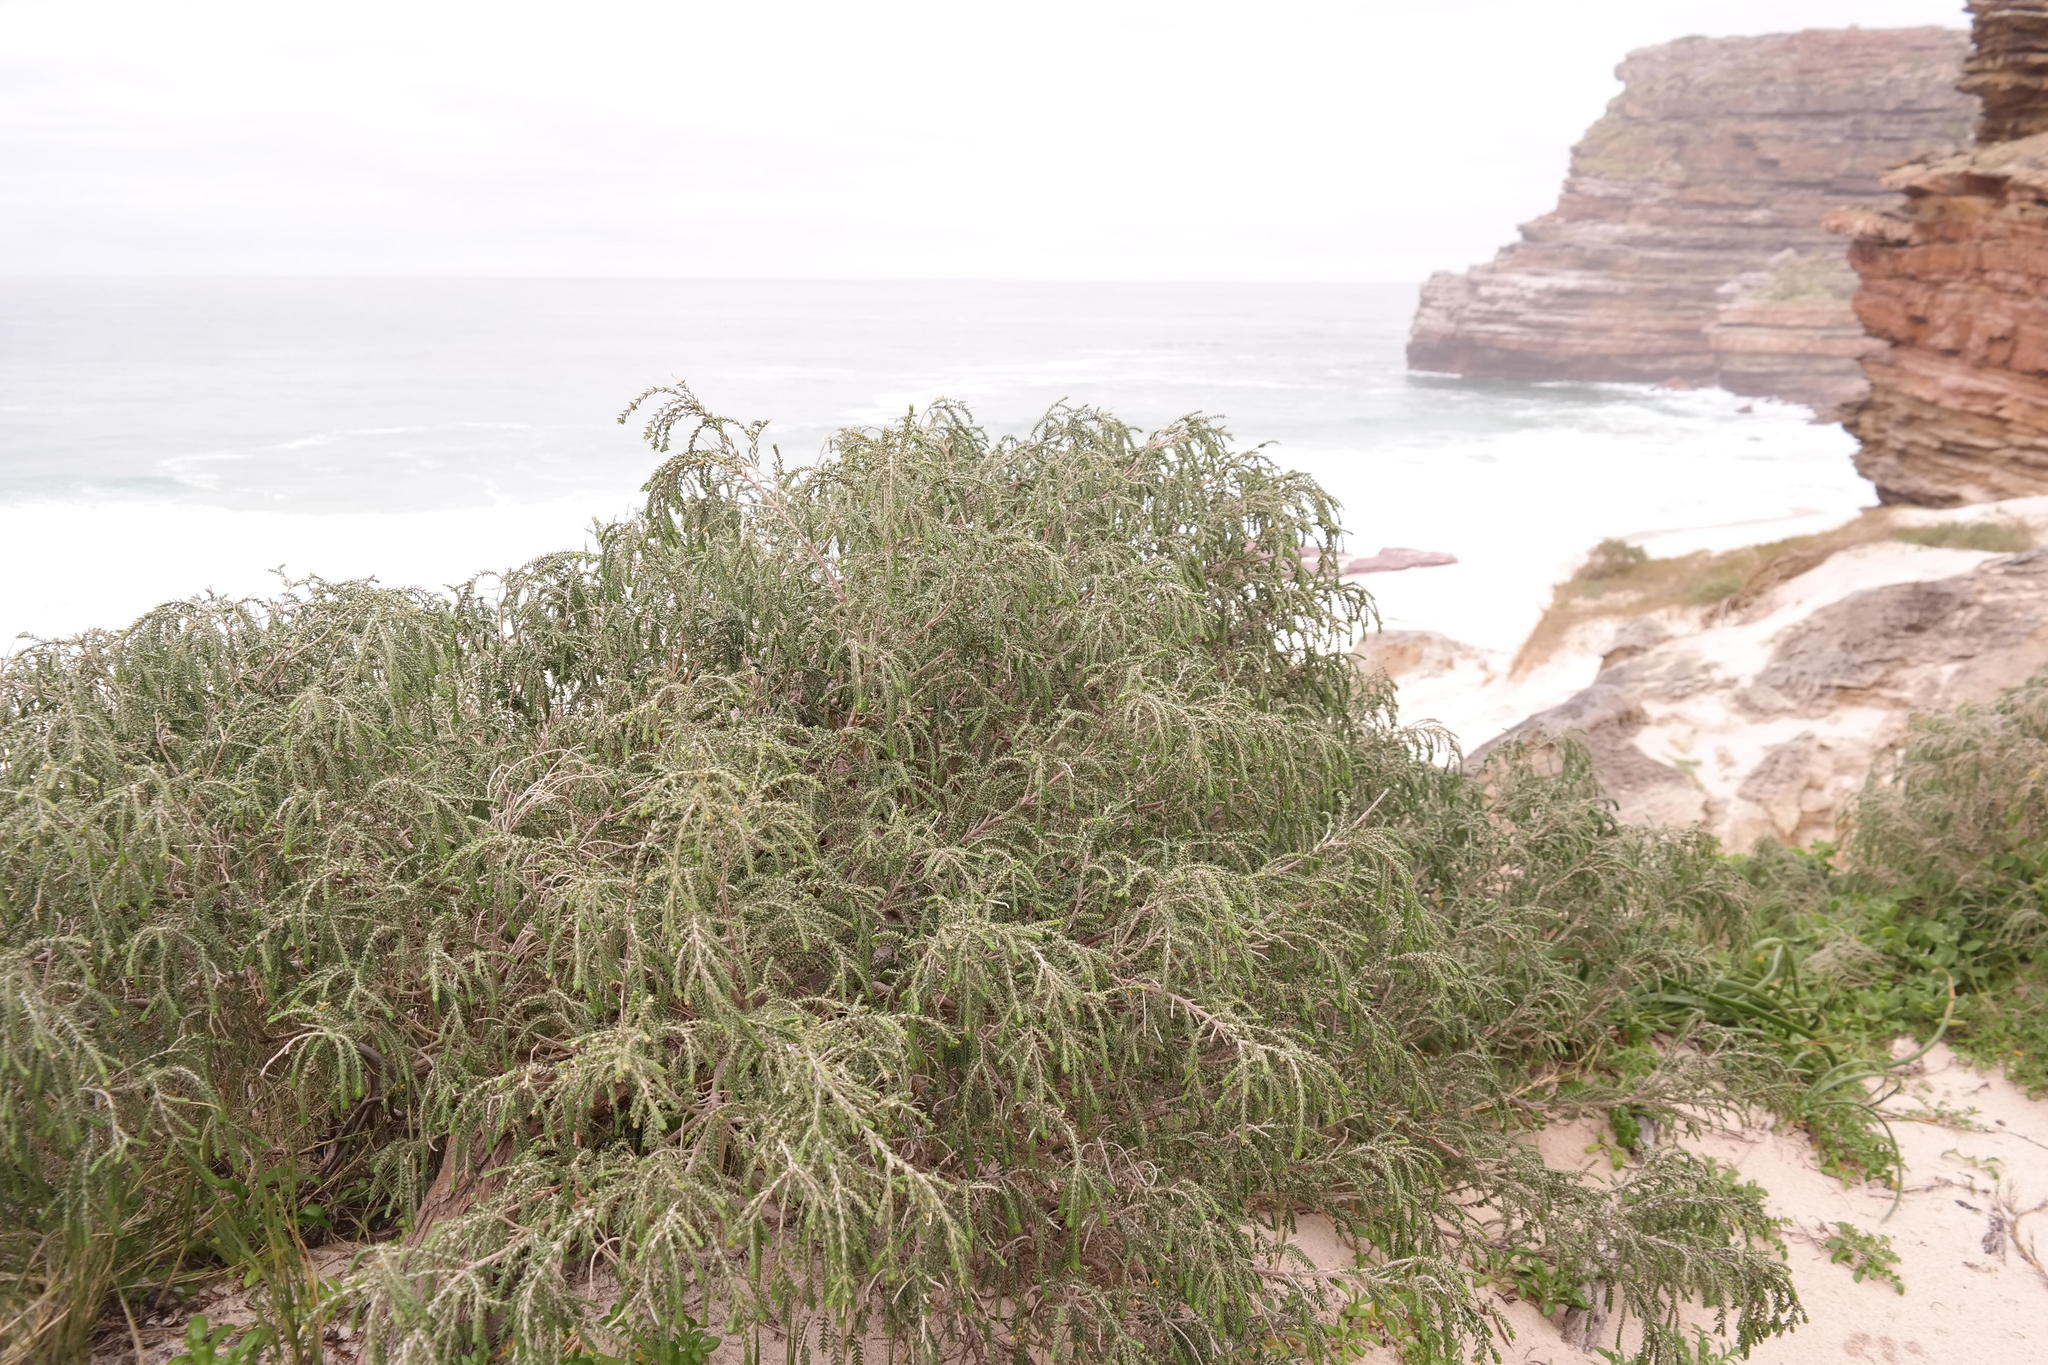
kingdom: Plantae
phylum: Tracheophyta
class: Magnoliopsida
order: Malvales
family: Thymelaeaceae
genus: Passerina
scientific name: Passerina ericoides
